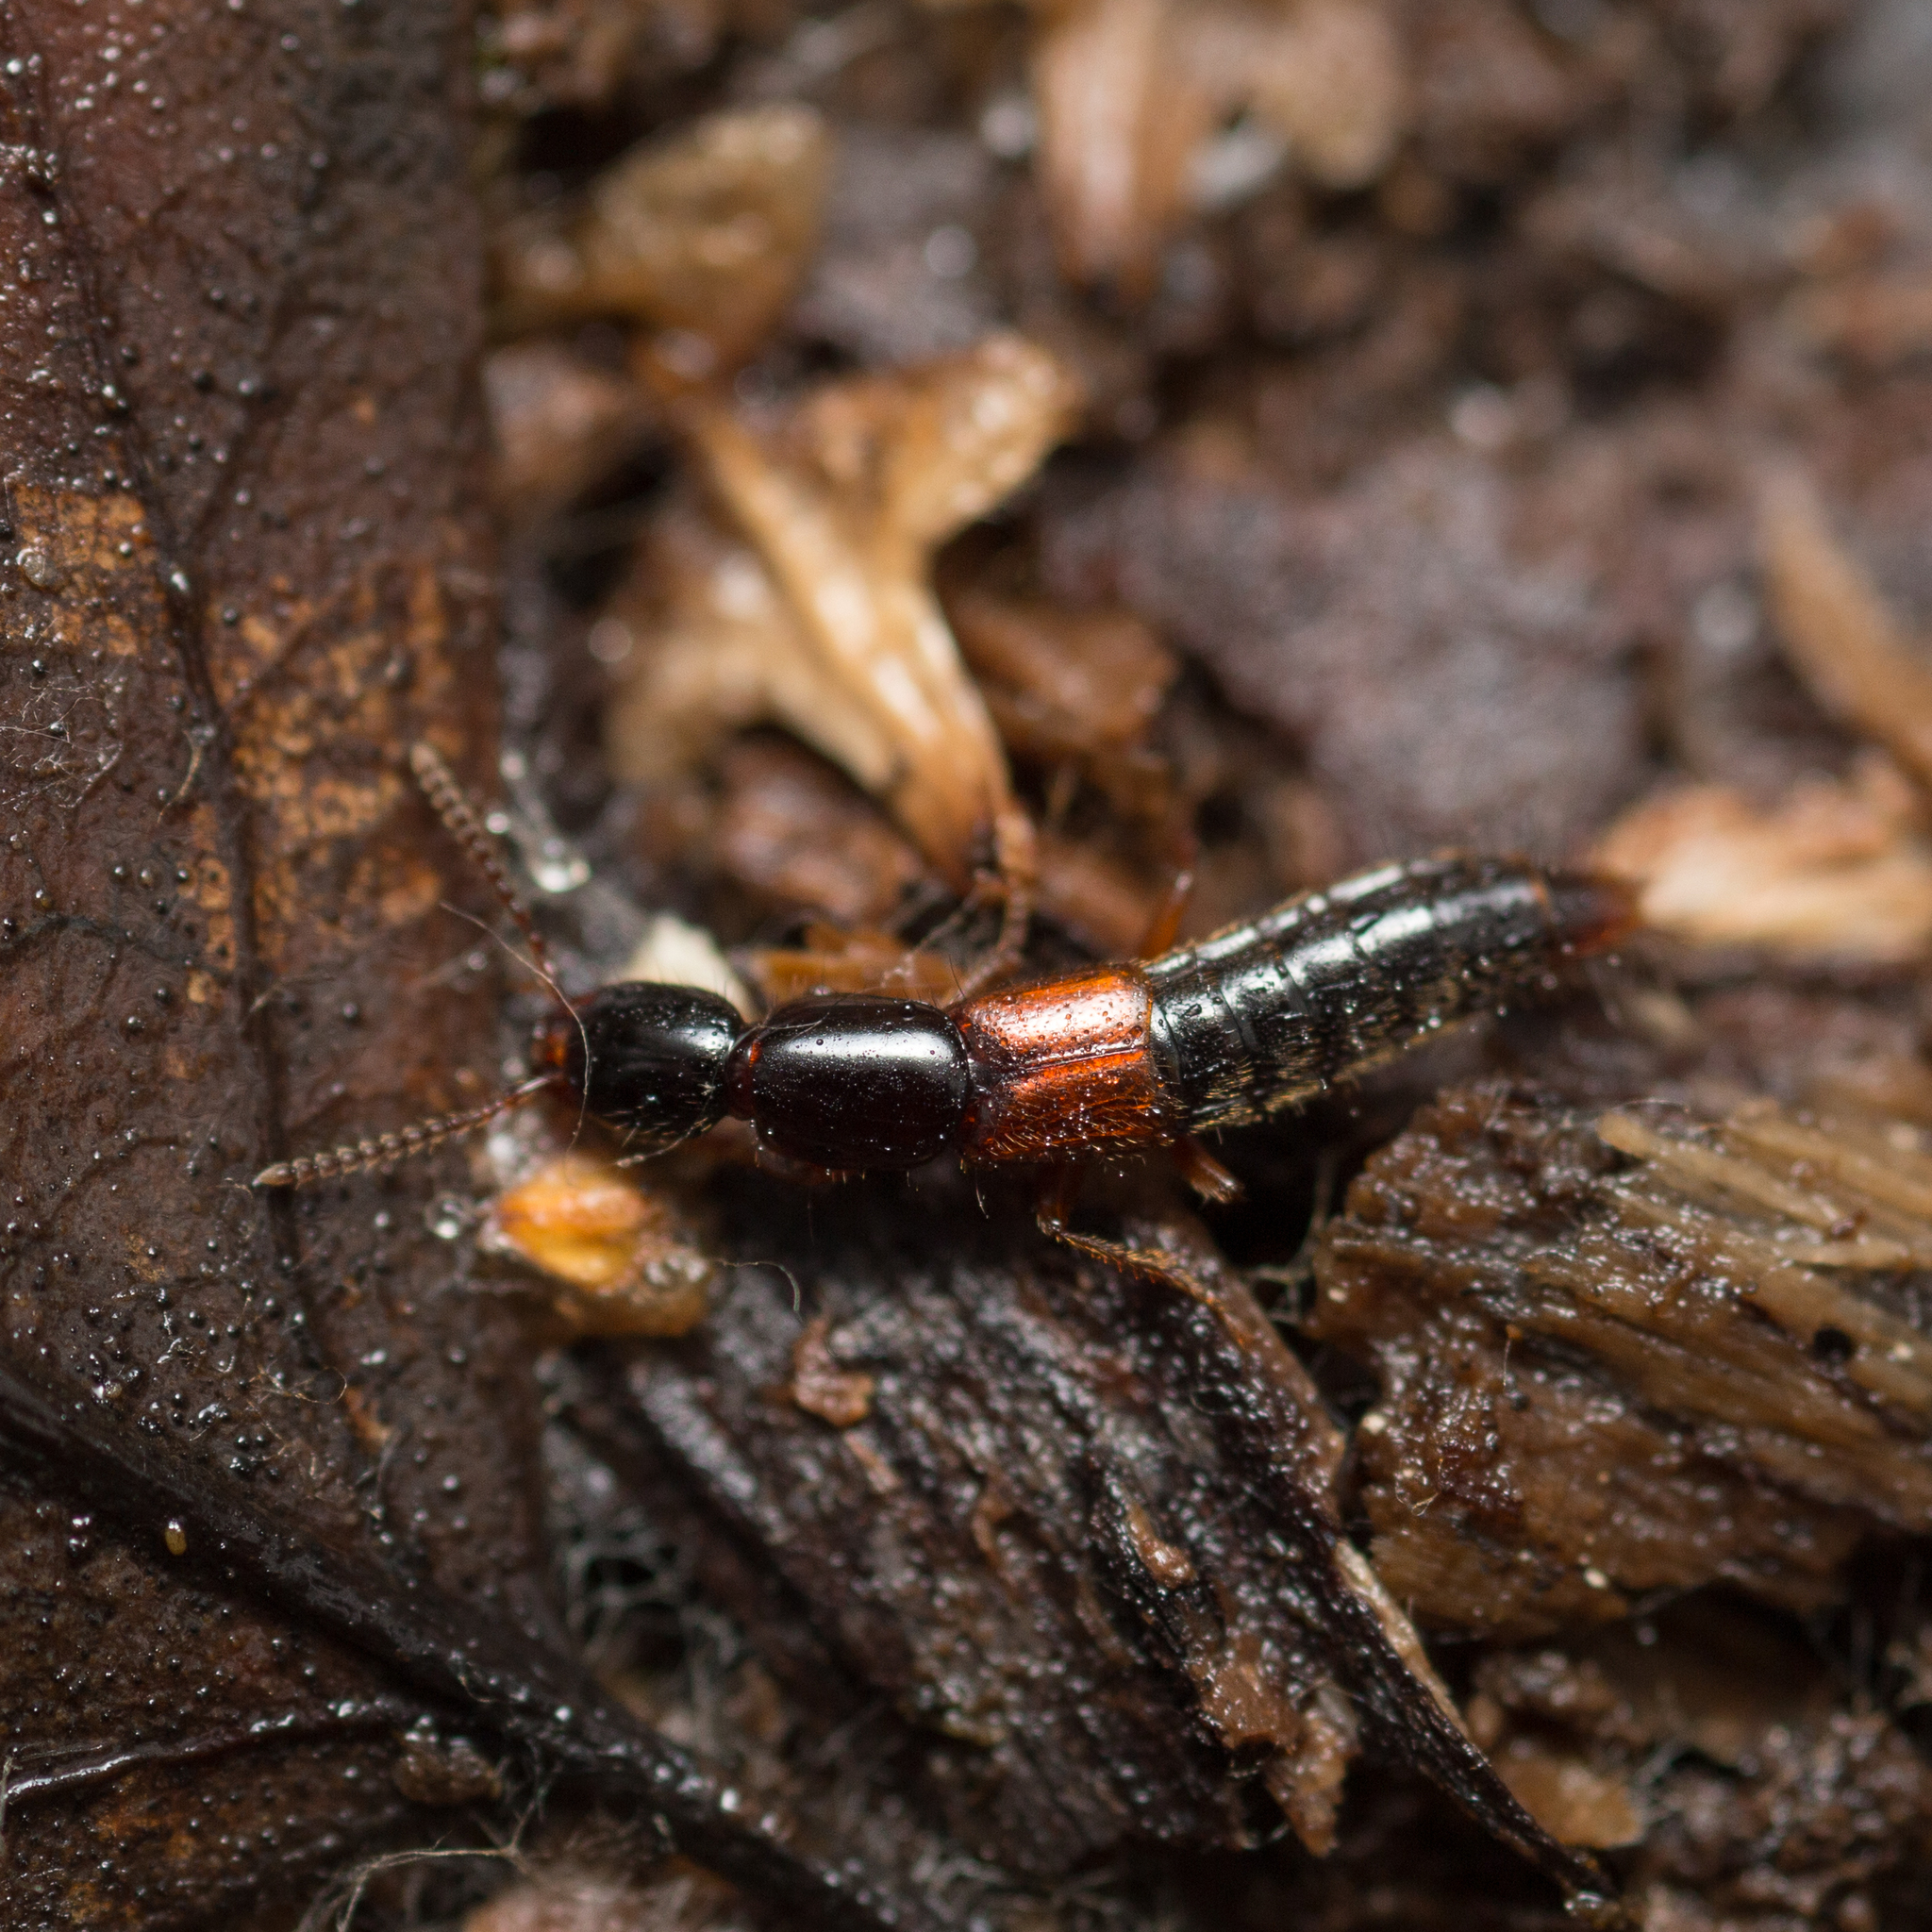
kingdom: Animalia
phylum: Arthropoda
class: Insecta
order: Coleoptera
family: Staphylinidae
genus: Othius
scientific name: Othius punctulatus
